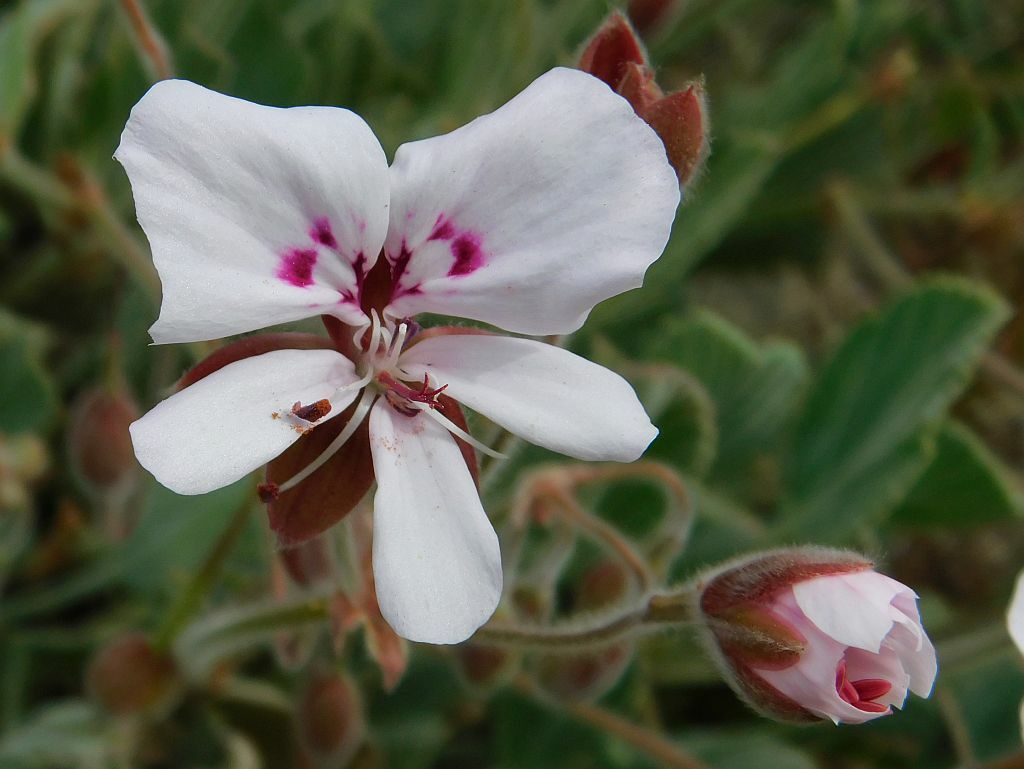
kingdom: Plantae
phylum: Tracheophyta
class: Magnoliopsida
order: Geraniales
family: Geraniaceae
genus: Pelargonium
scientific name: Pelargonium ovale
